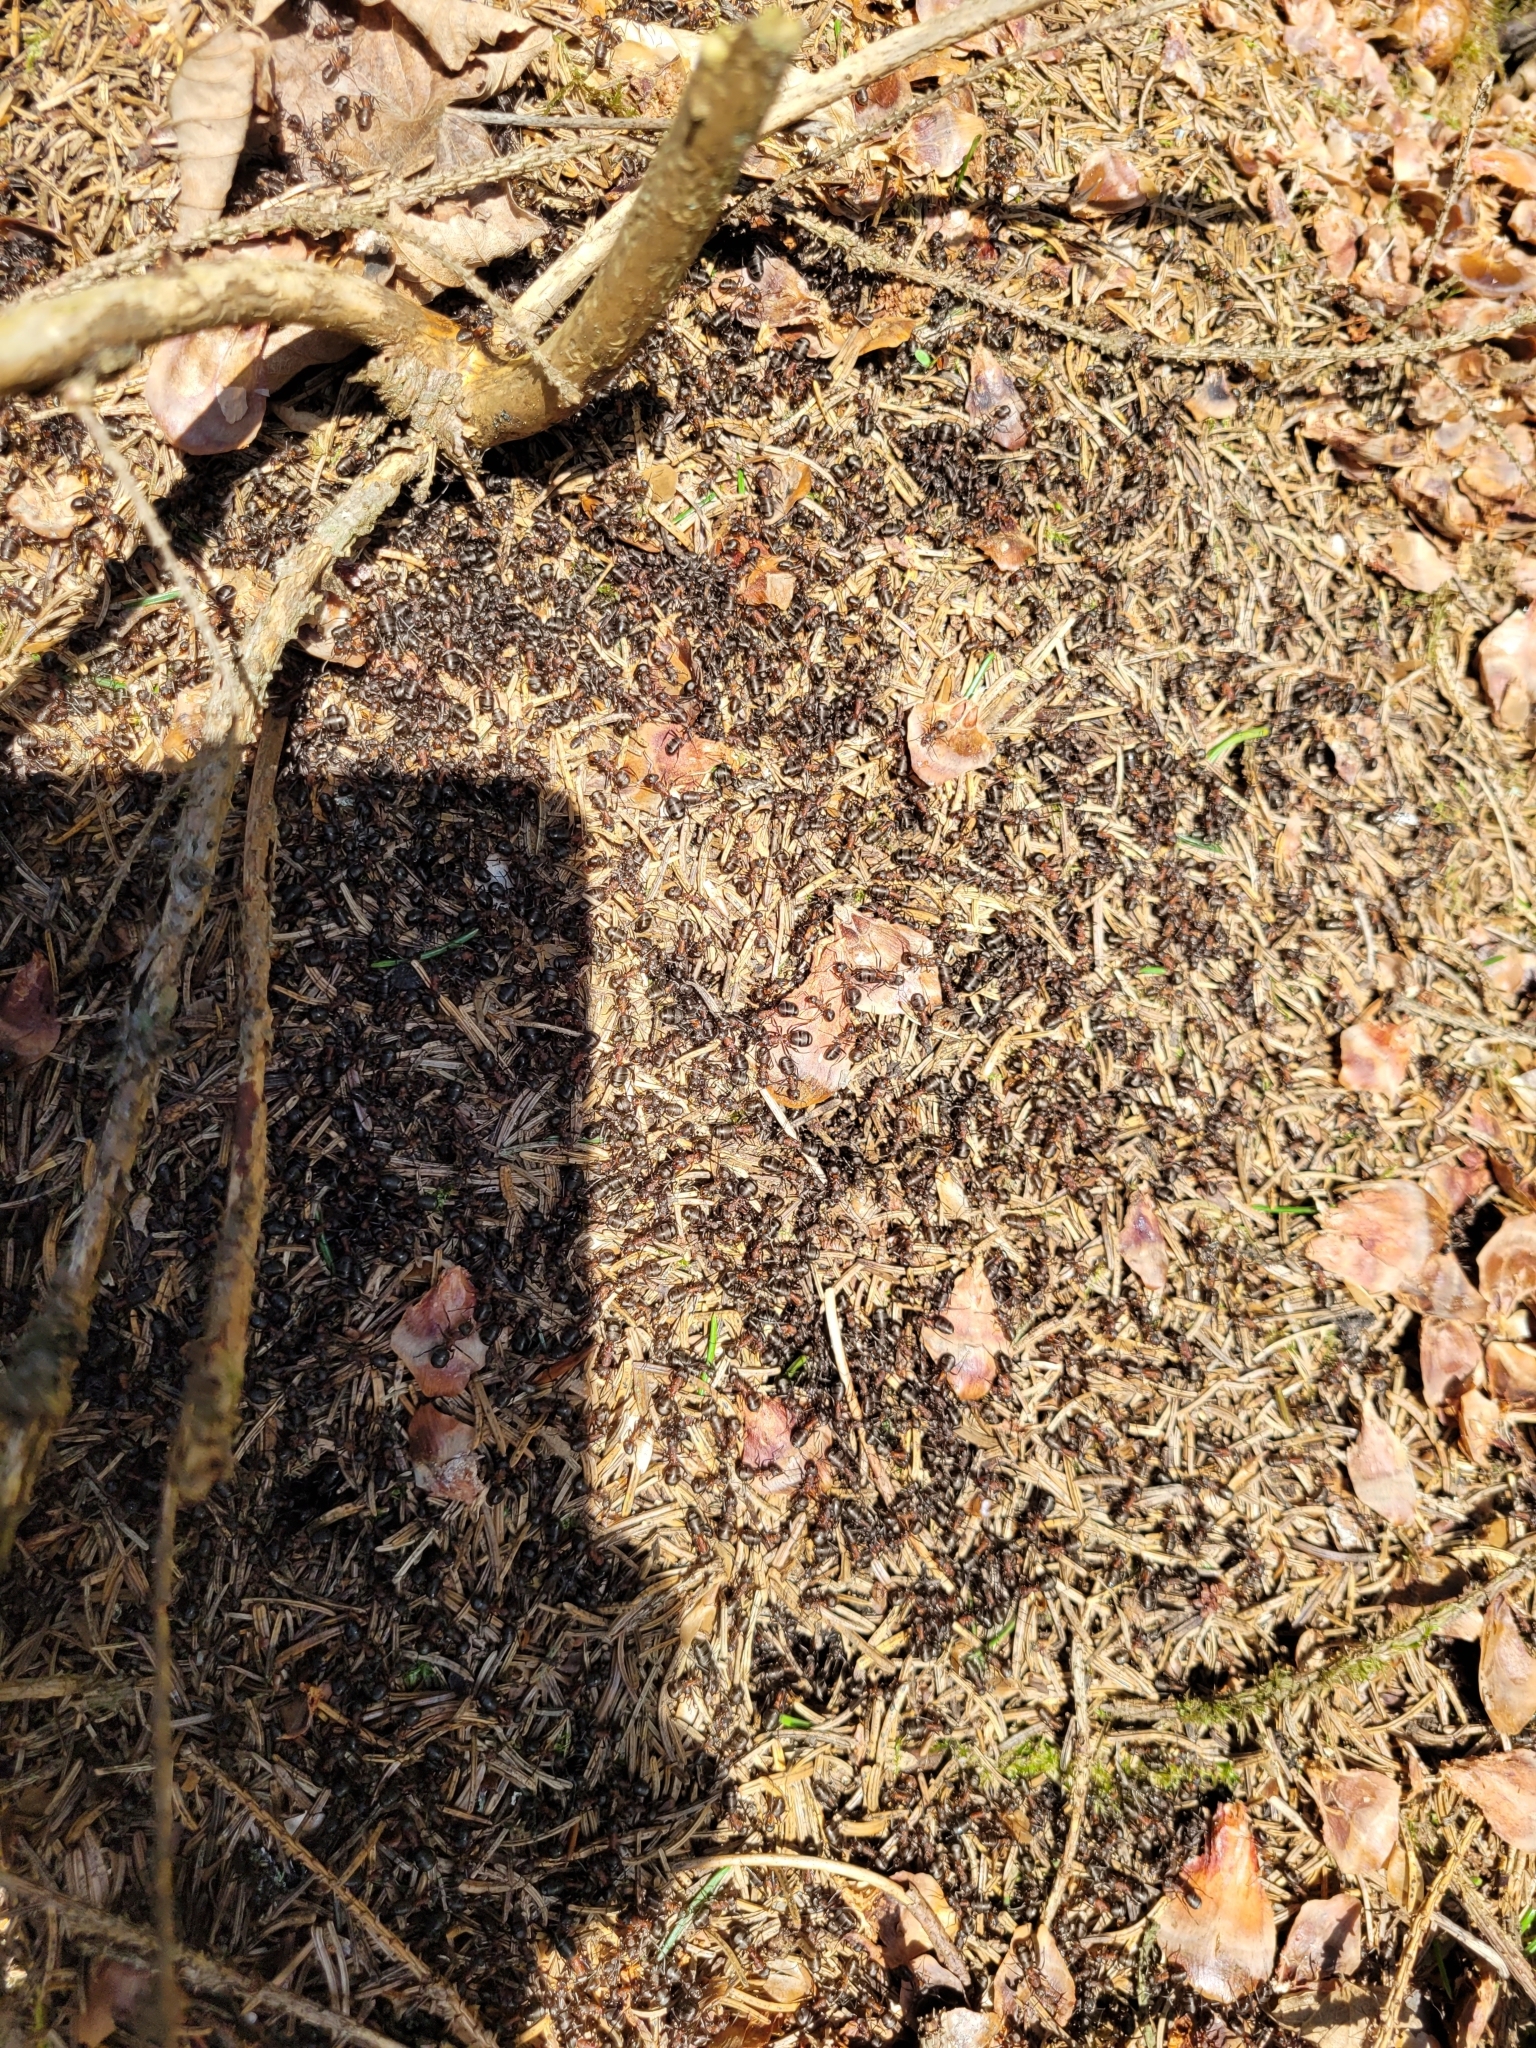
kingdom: Animalia
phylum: Arthropoda
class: Insecta
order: Hymenoptera
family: Formicidae
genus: Formica
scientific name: Formica
